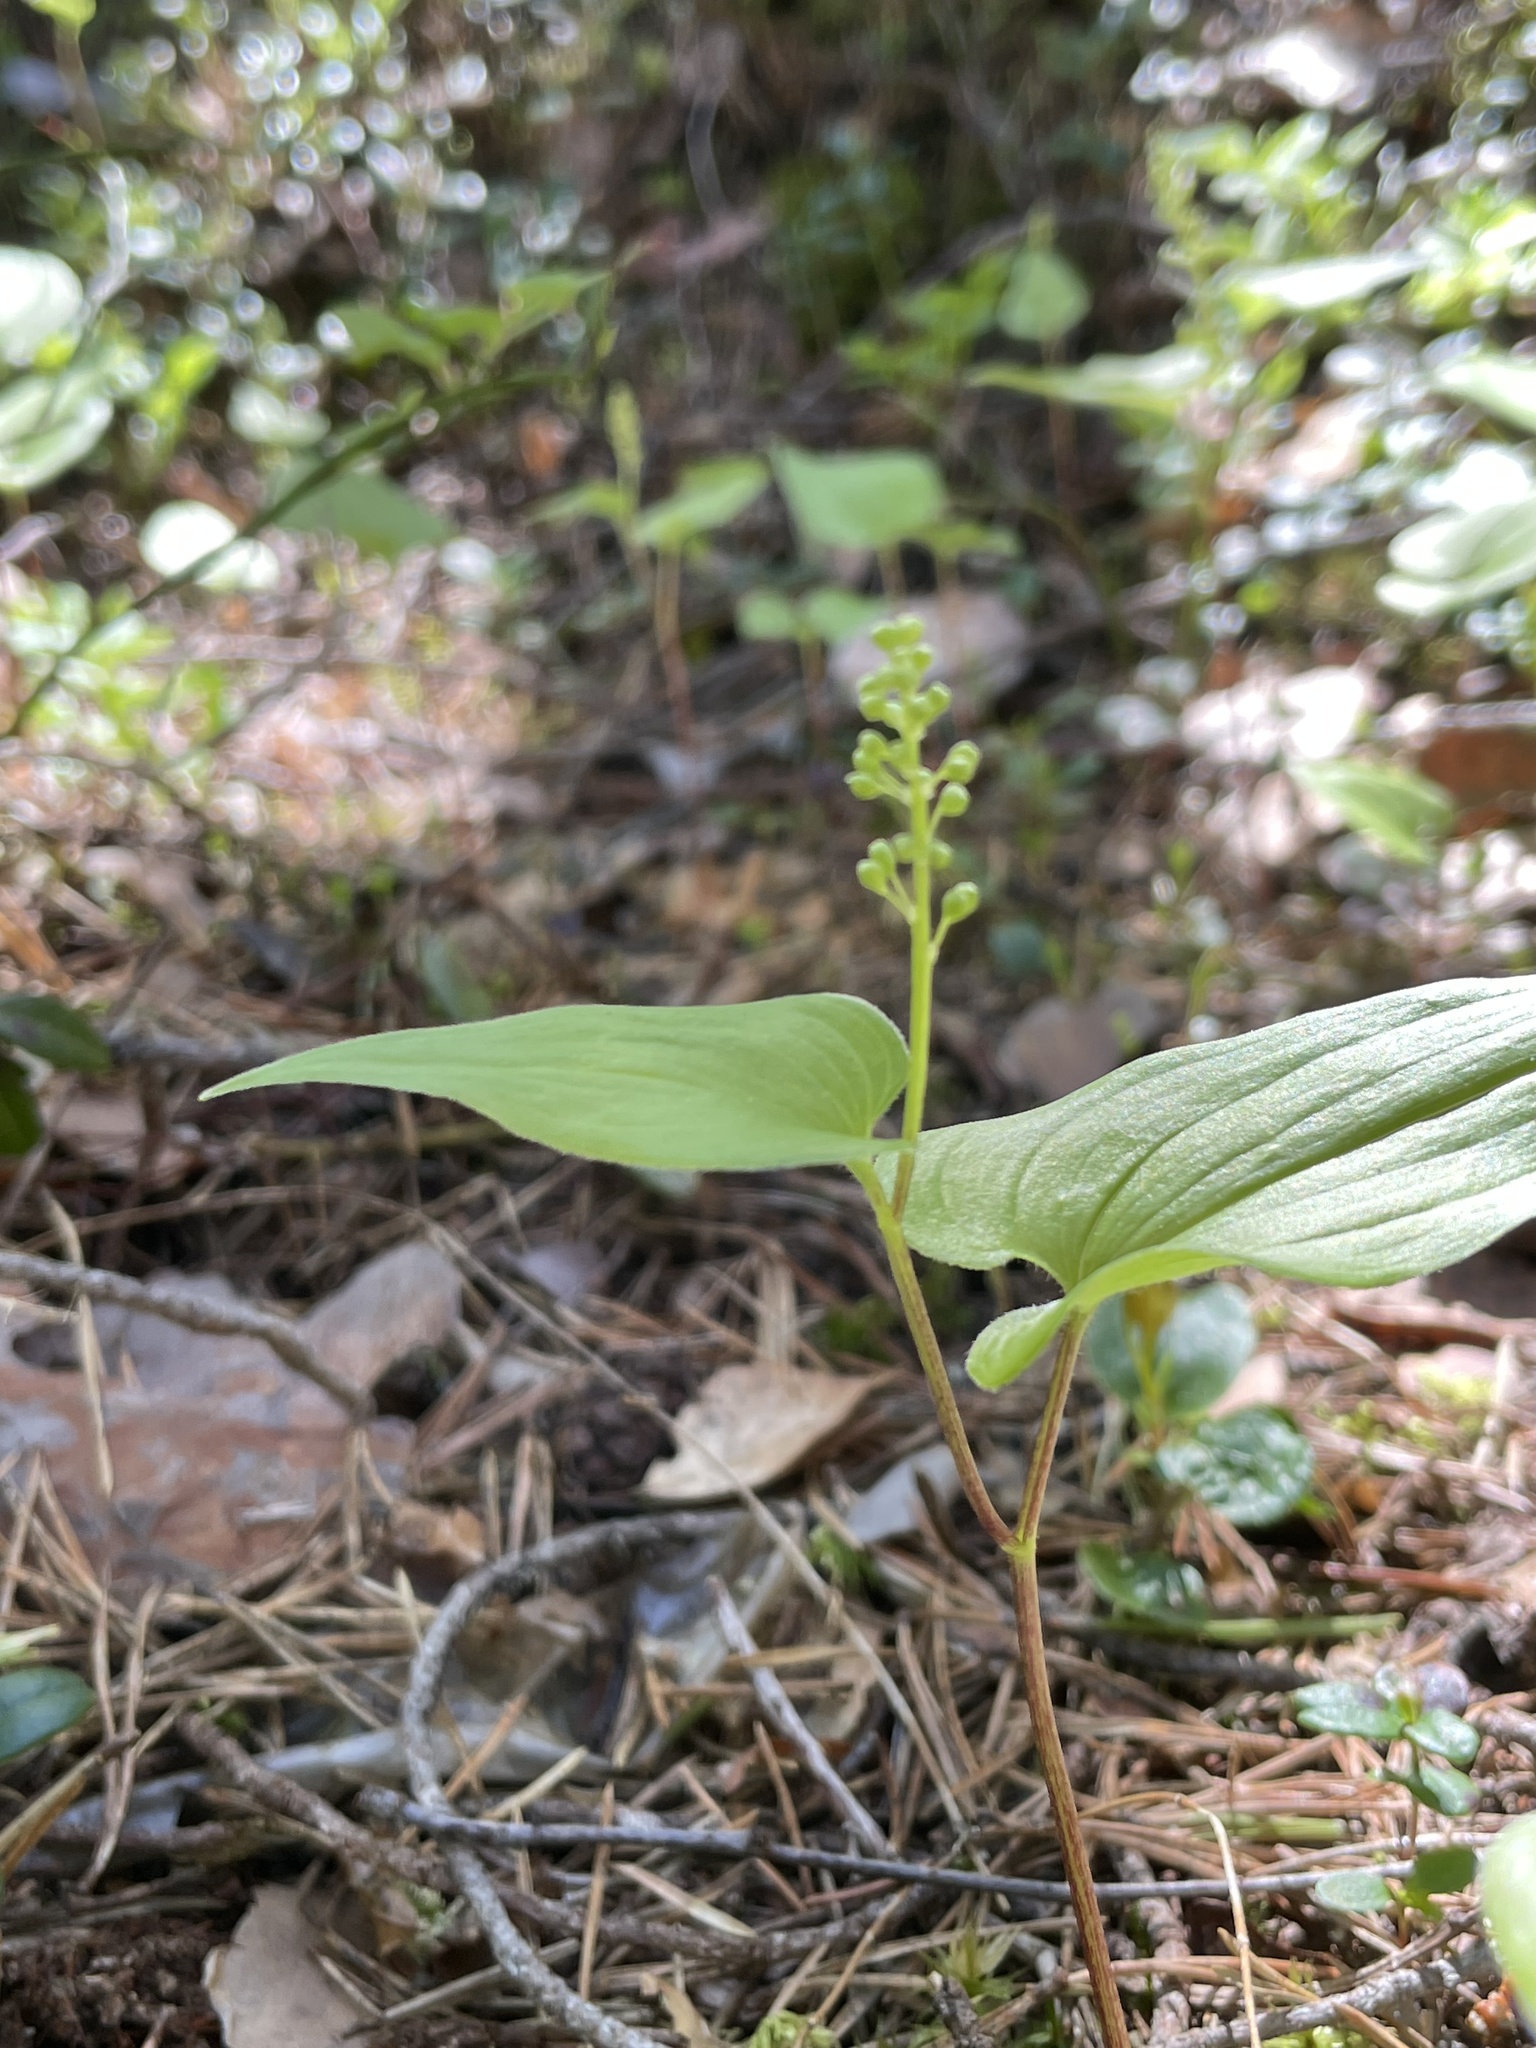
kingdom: Plantae
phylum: Tracheophyta
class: Liliopsida
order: Asparagales
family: Asparagaceae
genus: Maianthemum
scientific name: Maianthemum bifolium
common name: May lily
